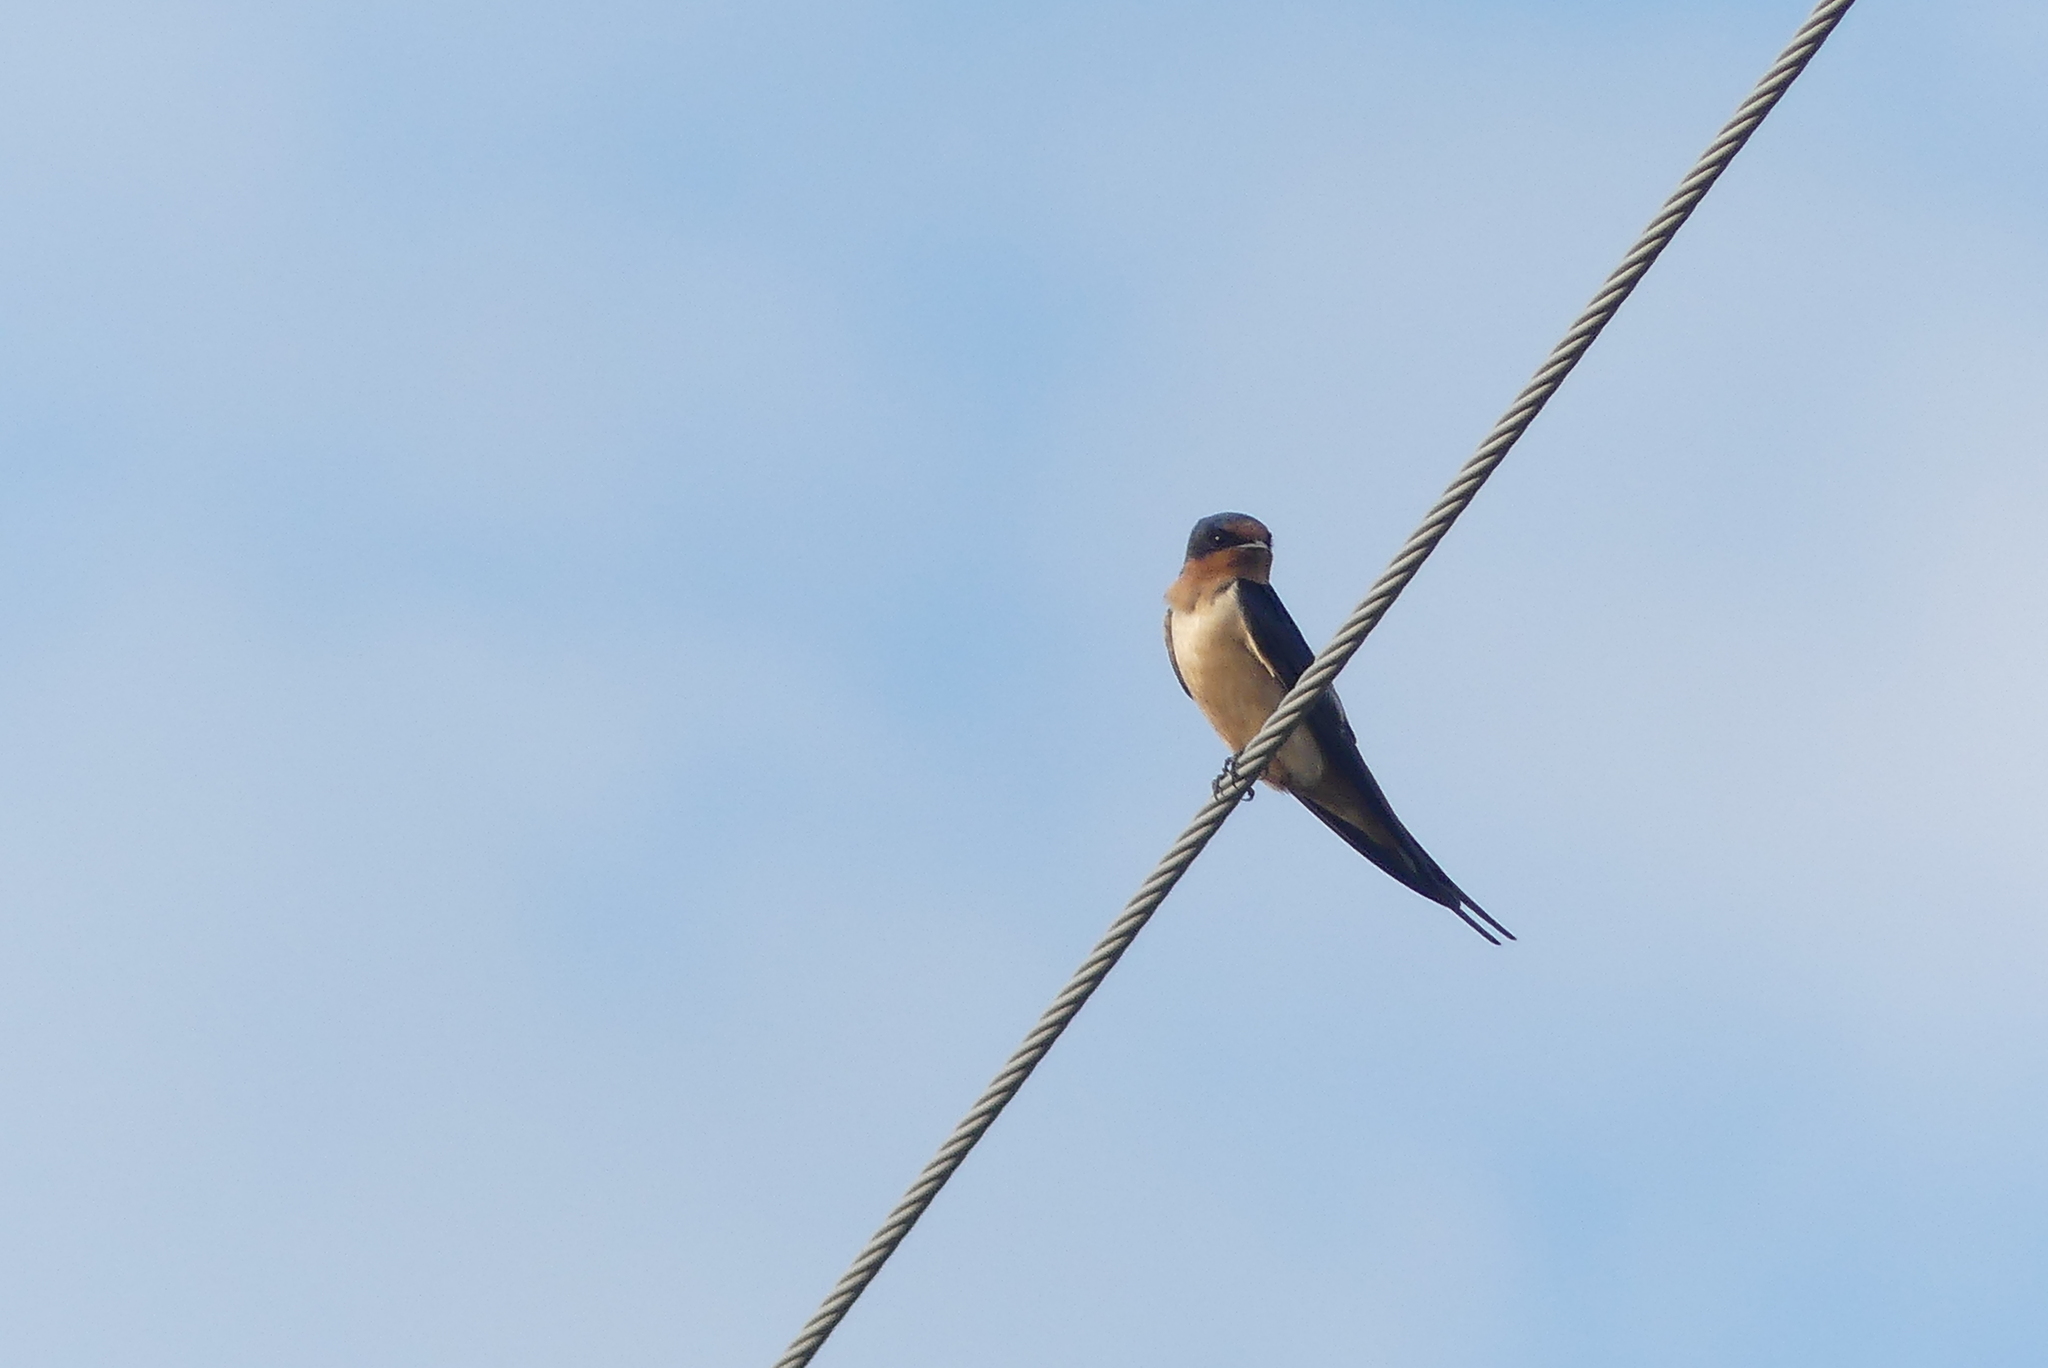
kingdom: Animalia
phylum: Chordata
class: Aves
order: Passeriformes
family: Hirundinidae
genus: Hirundo
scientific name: Hirundo rustica
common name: Barn swallow
